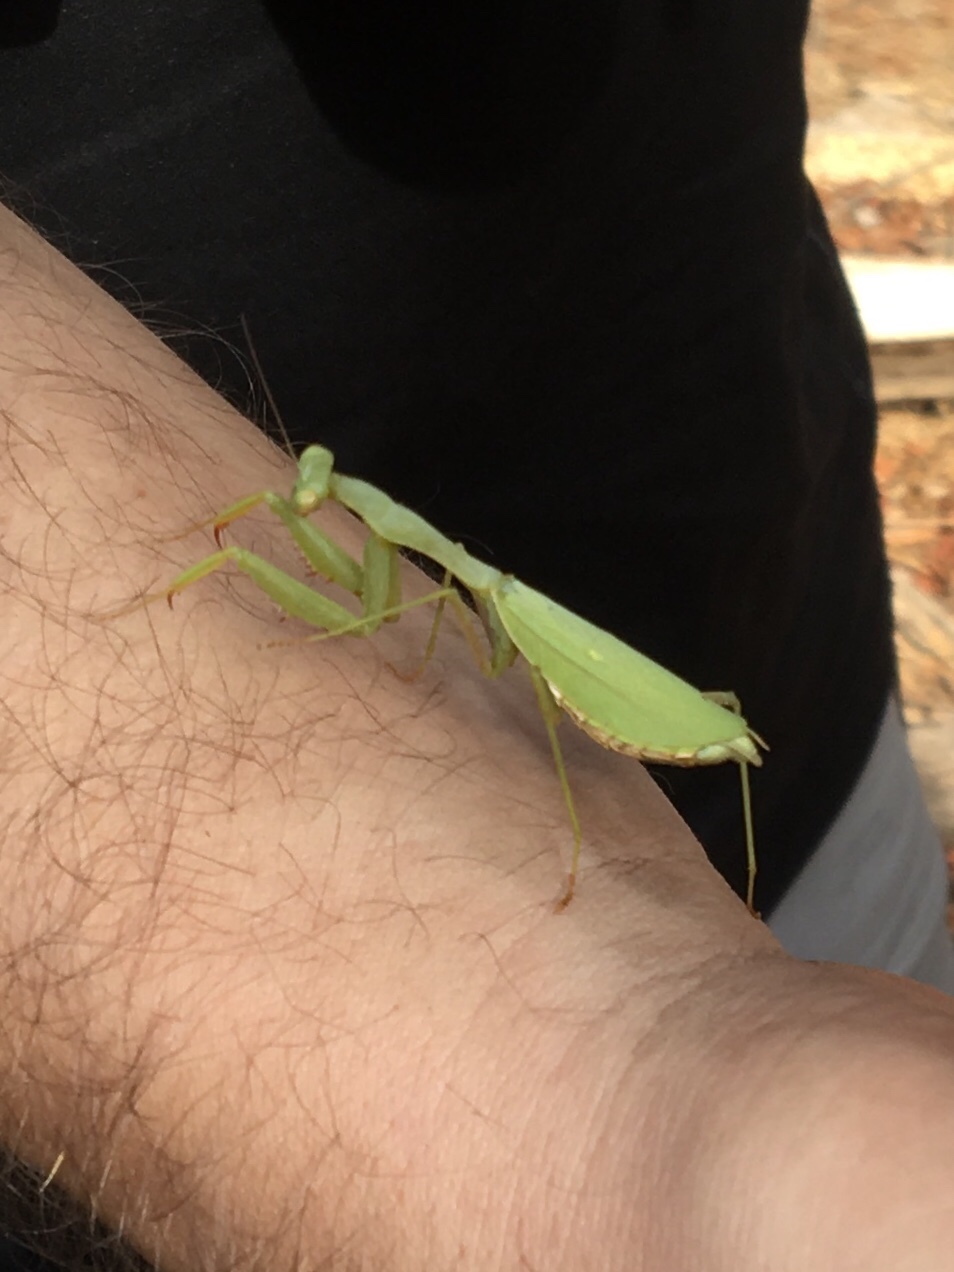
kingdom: Animalia
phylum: Arthropoda
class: Insecta
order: Mantodea
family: Miomantidae
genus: Miomantis
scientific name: Miomantis caffra
